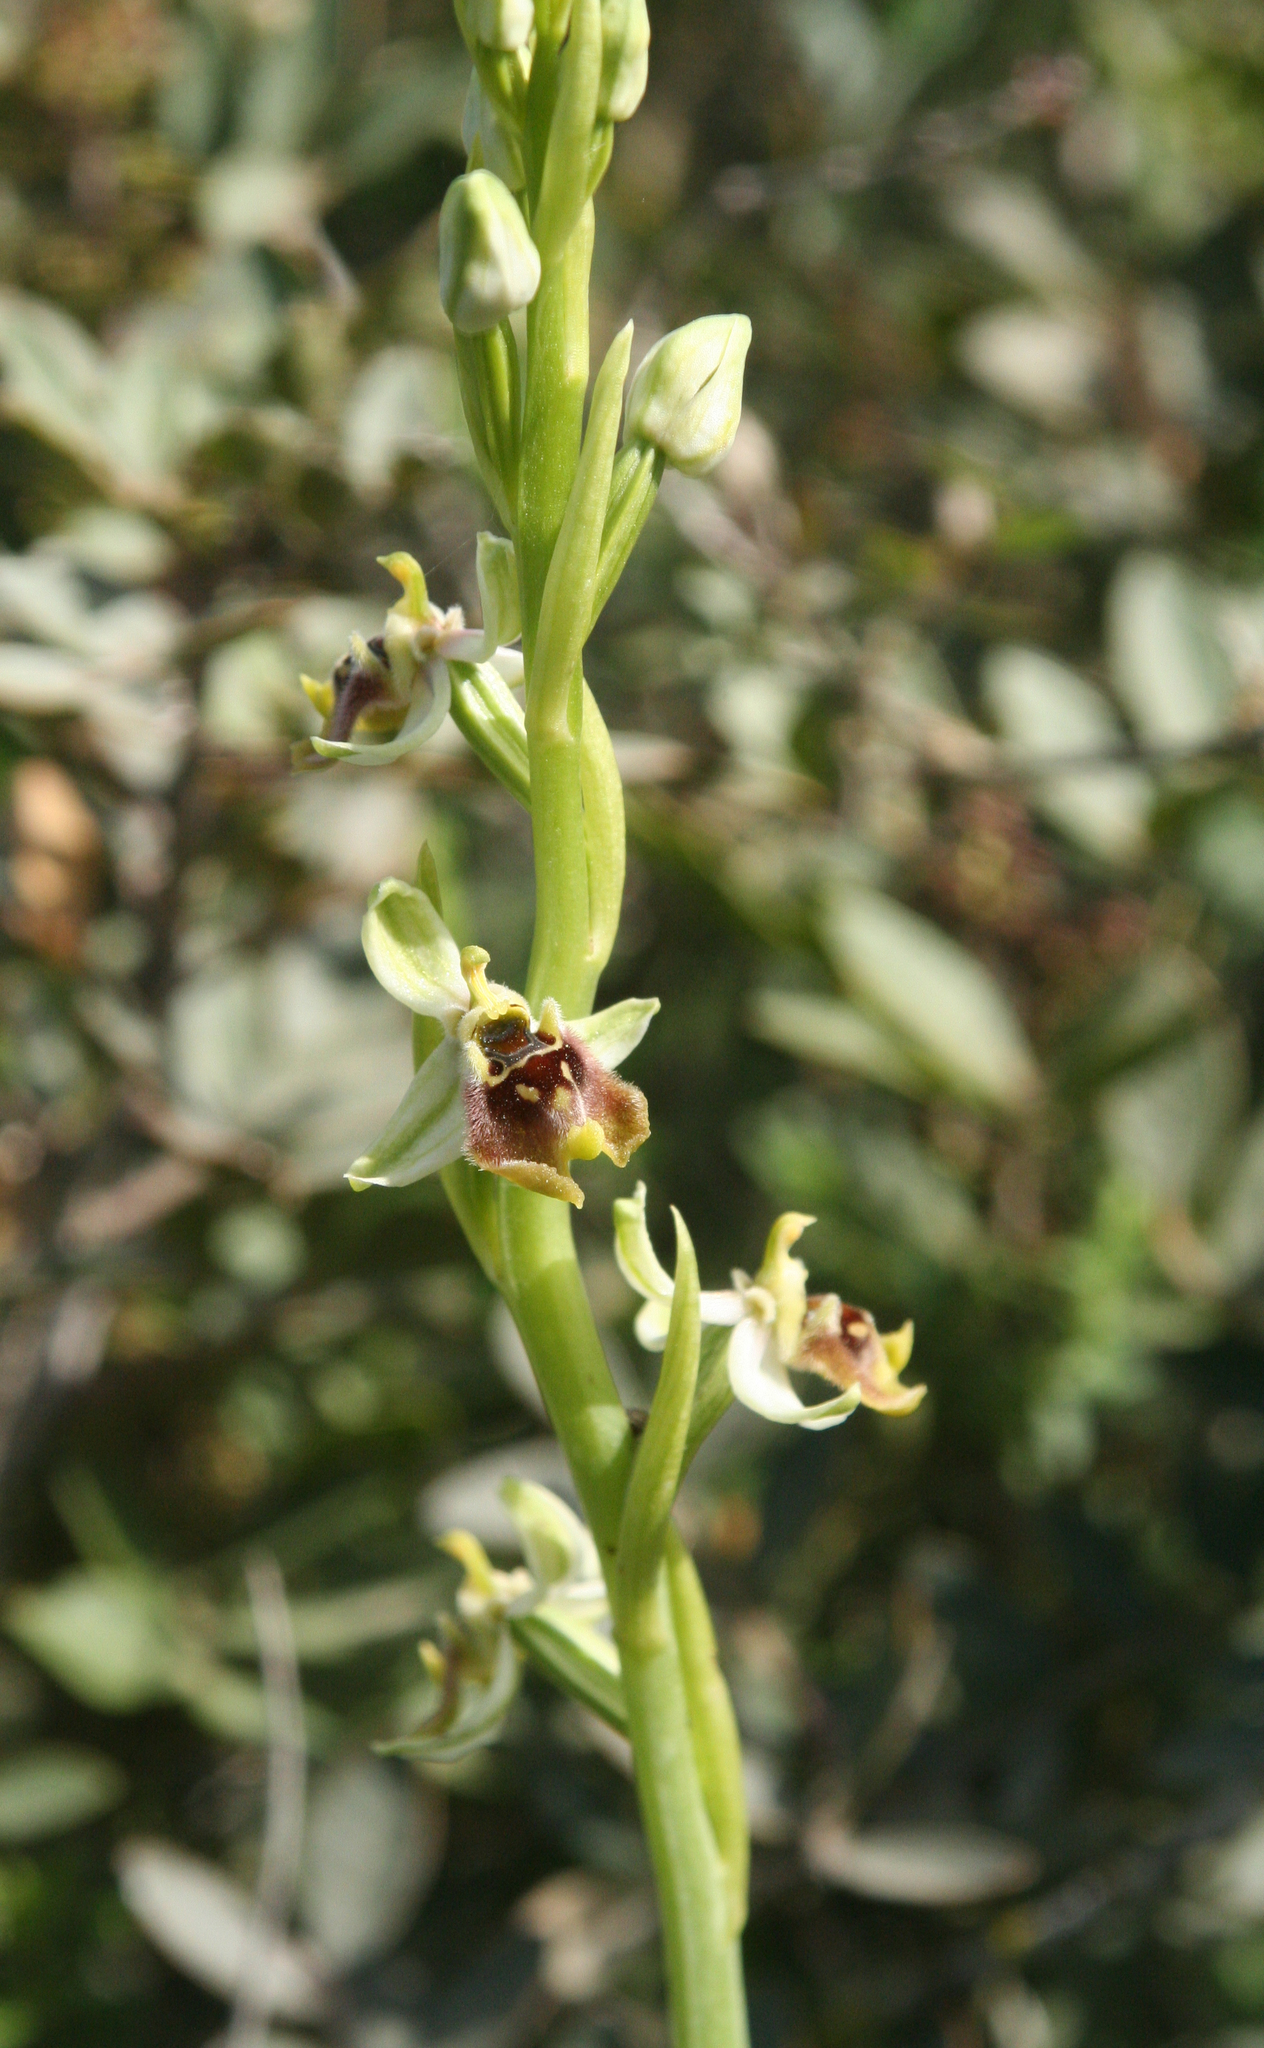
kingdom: Plantae
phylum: Tracheophyta
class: Liliopsida
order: Asparagales
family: Orchidaceae
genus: Ophrys
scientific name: Ophrys bornmuelleri
